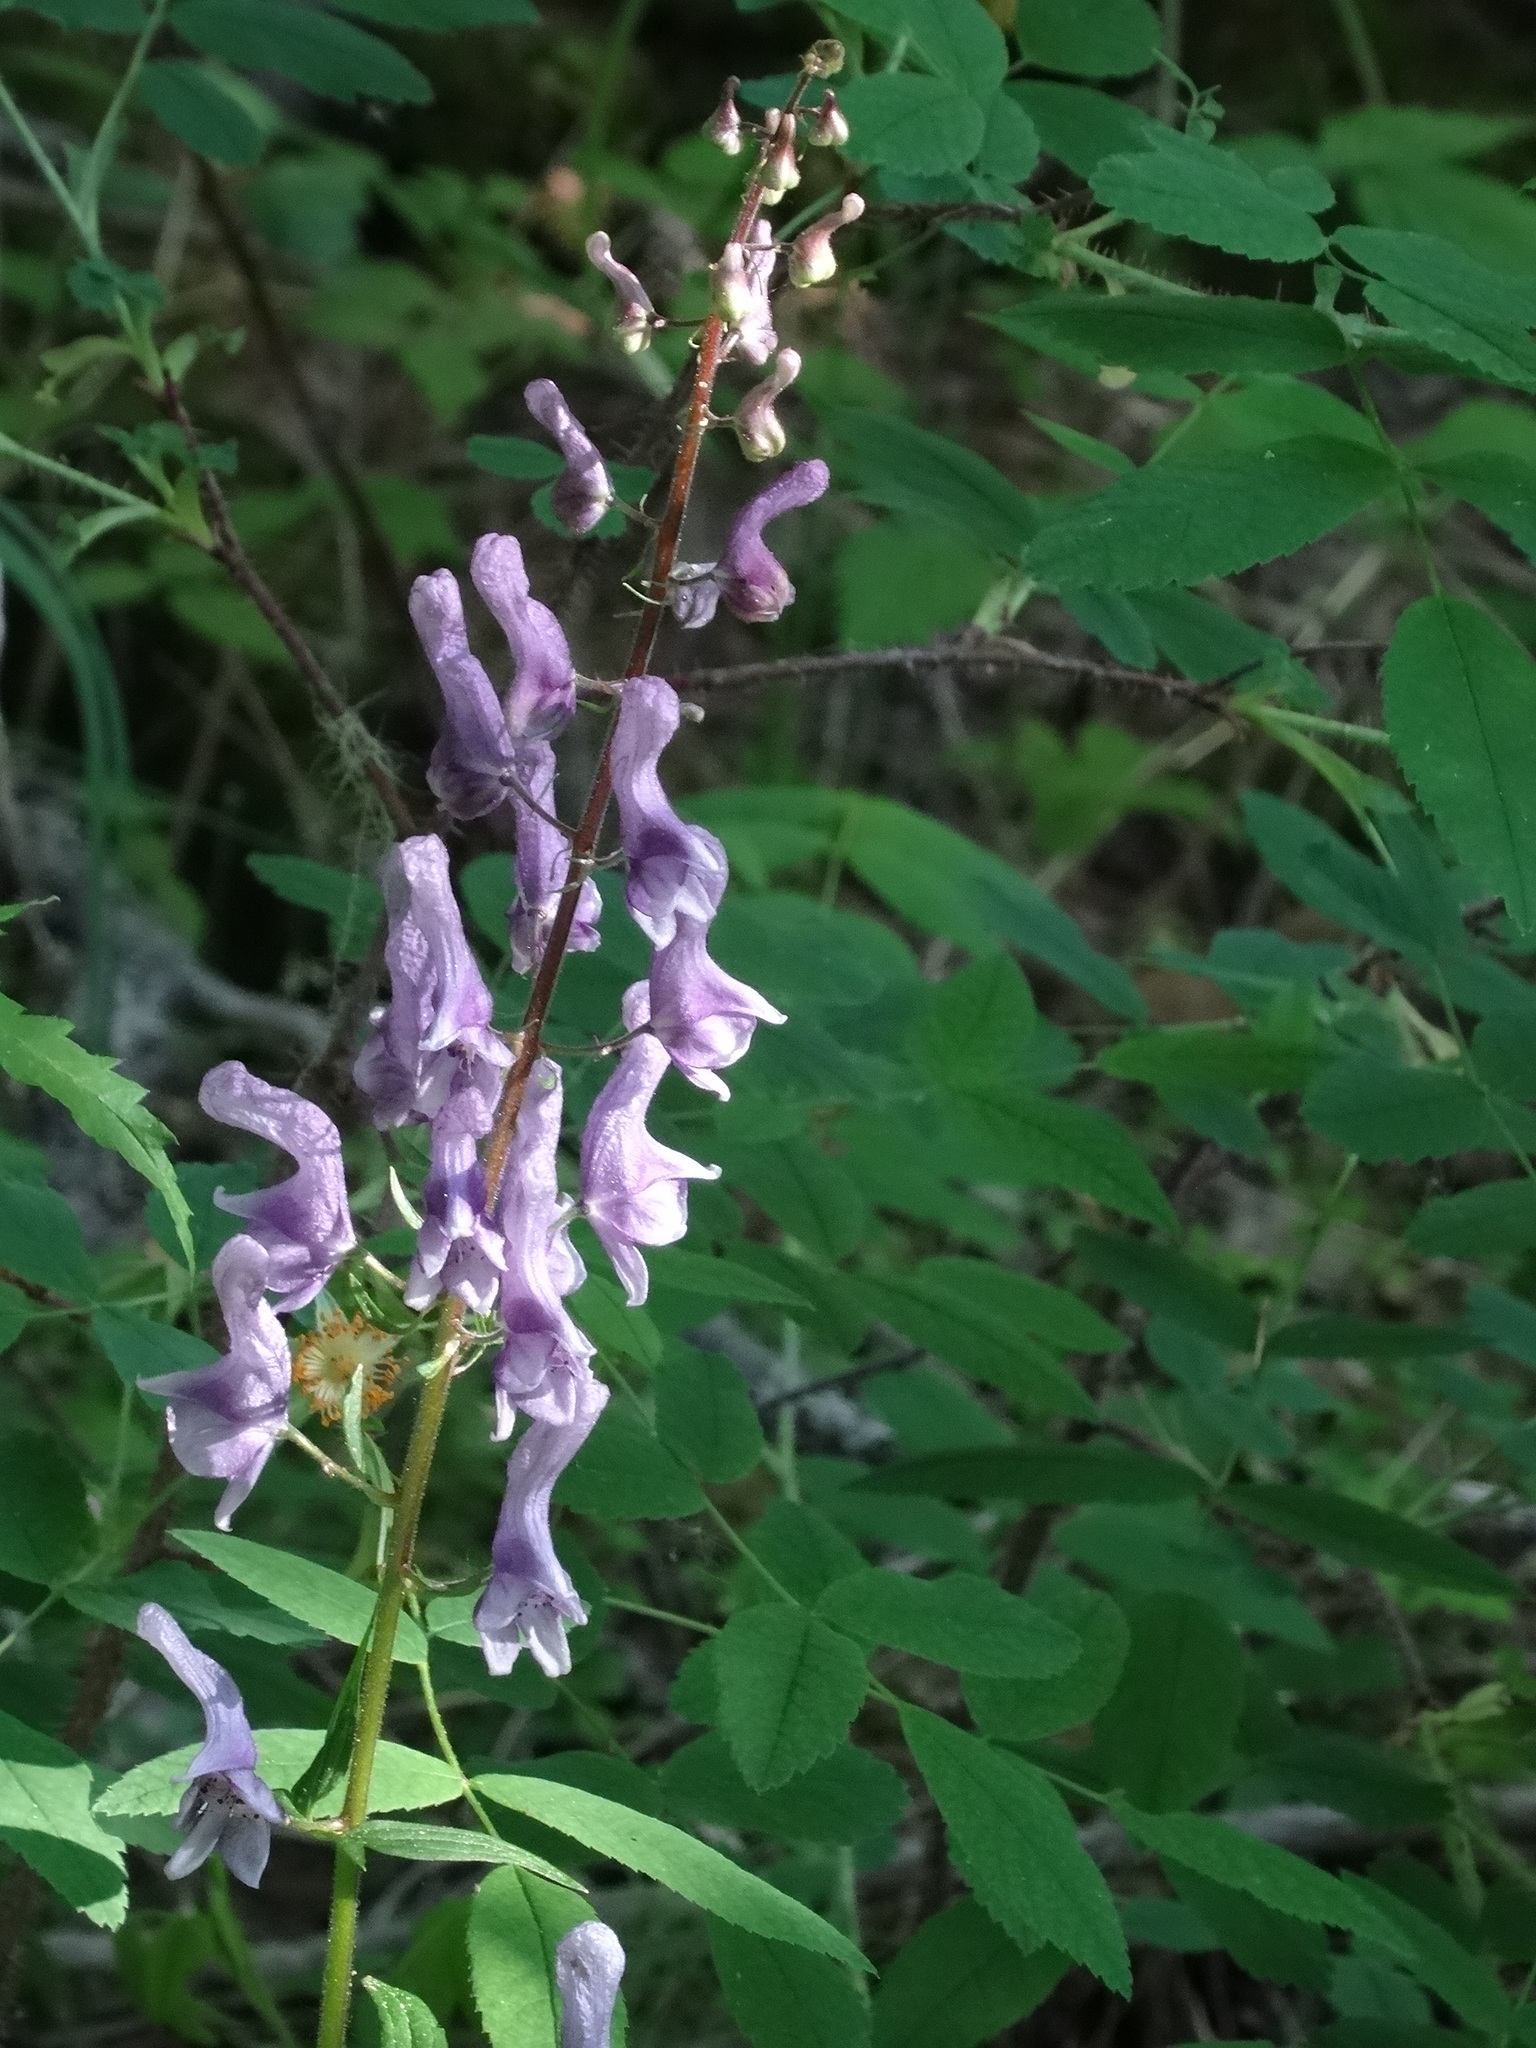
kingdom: Plantae
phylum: Tracheophyta
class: Magnoliopsida
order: Ranunculales
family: Ranunculaceae
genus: Aconitum
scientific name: Aconitum septentrionale
